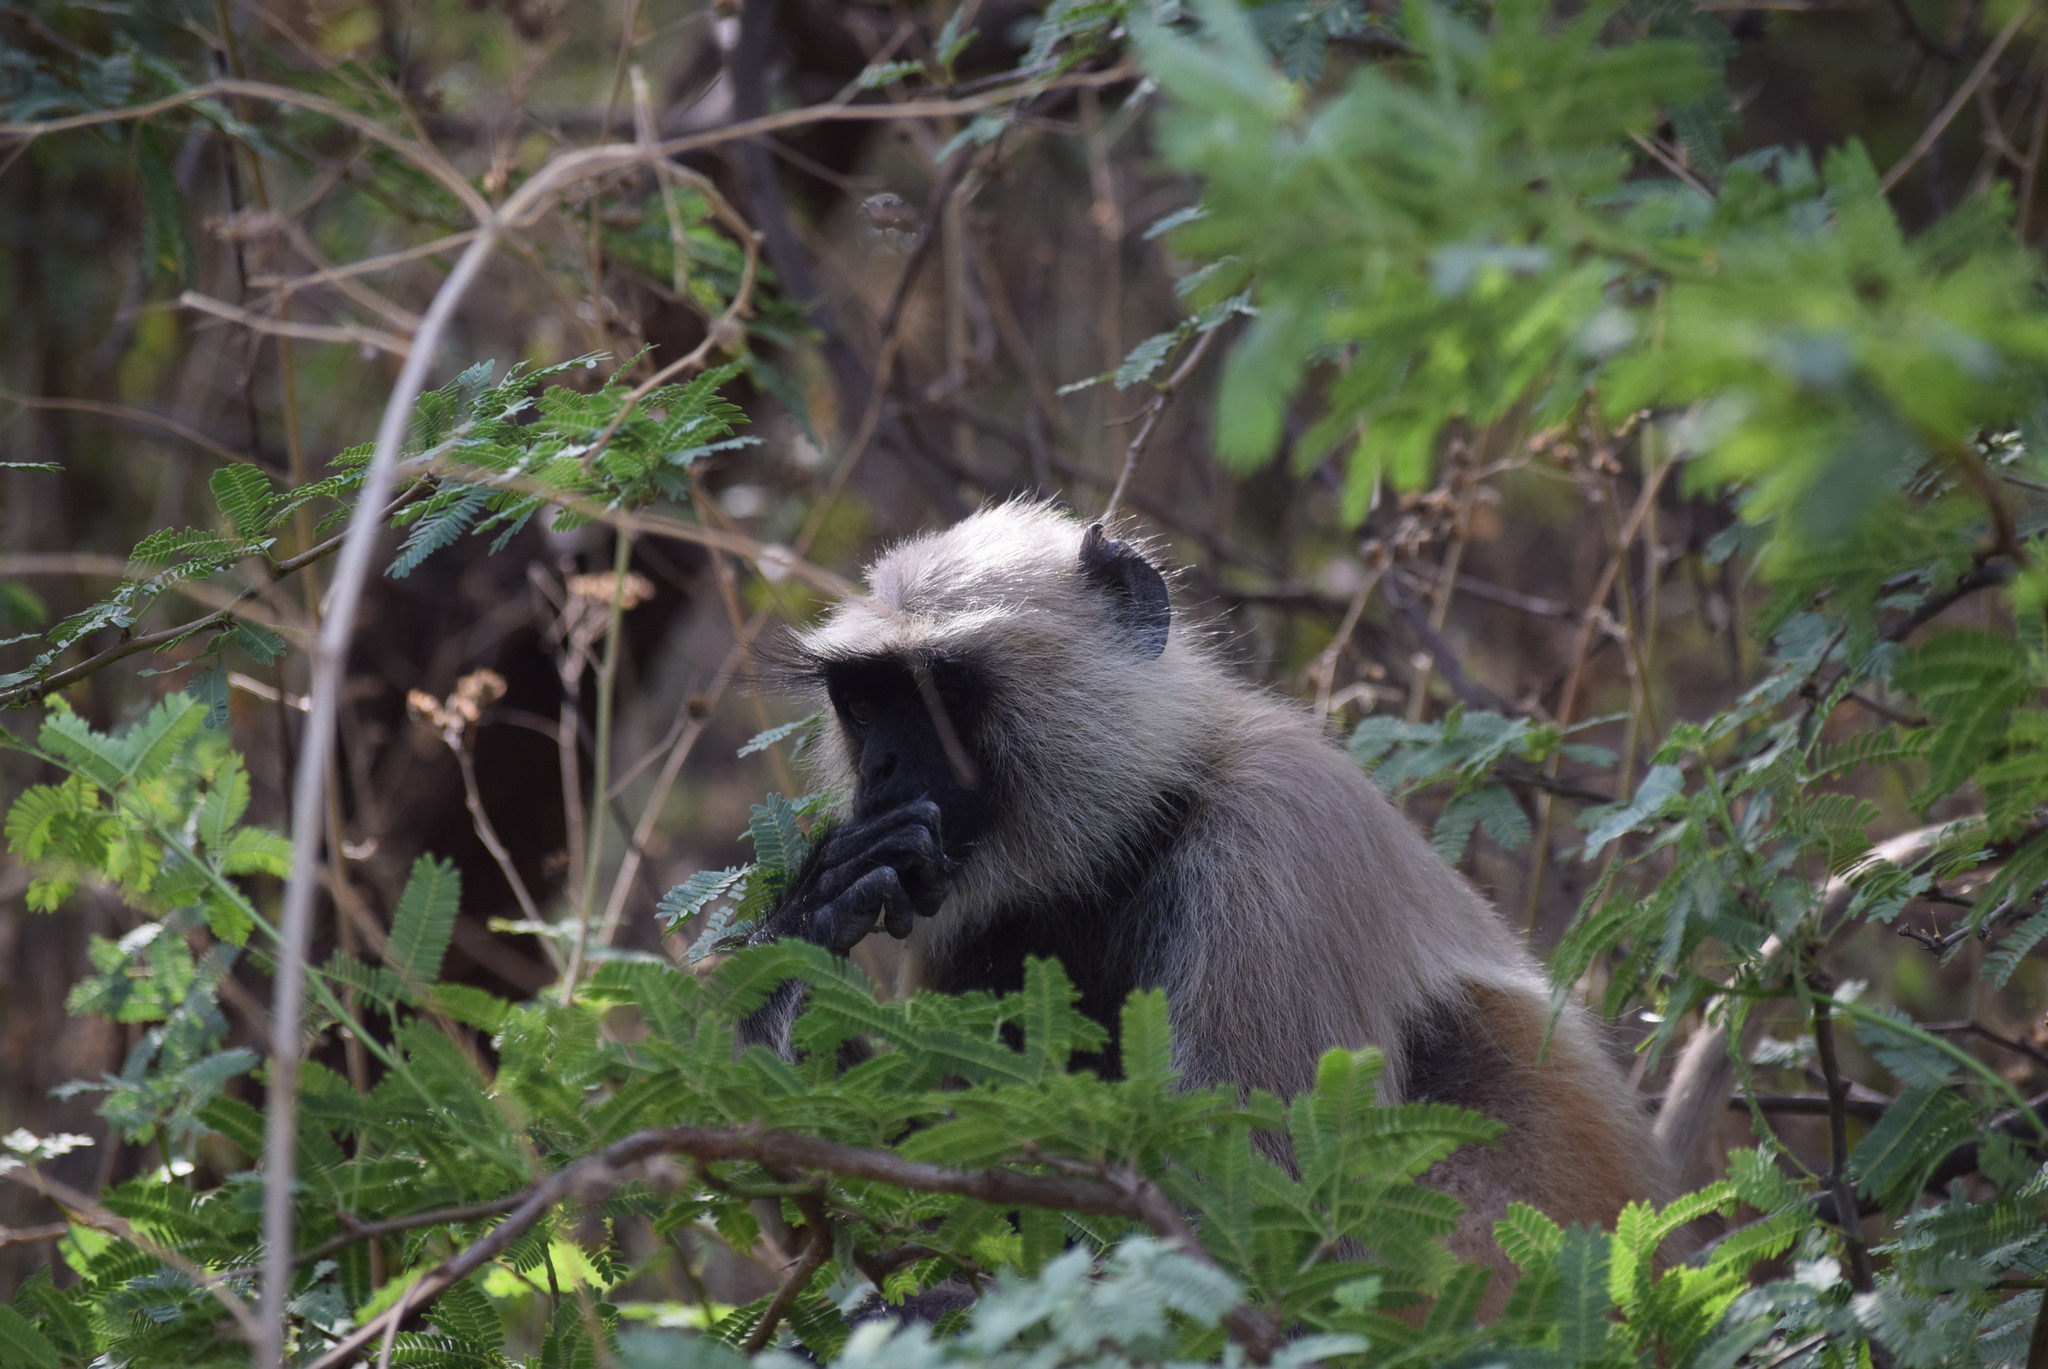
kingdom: Animalia
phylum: Chordata
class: Mammalia
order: Primates
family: Cercopithecidae
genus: Semnopithecus
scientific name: Semnopithecus entellus
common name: Northern plains gray langur
